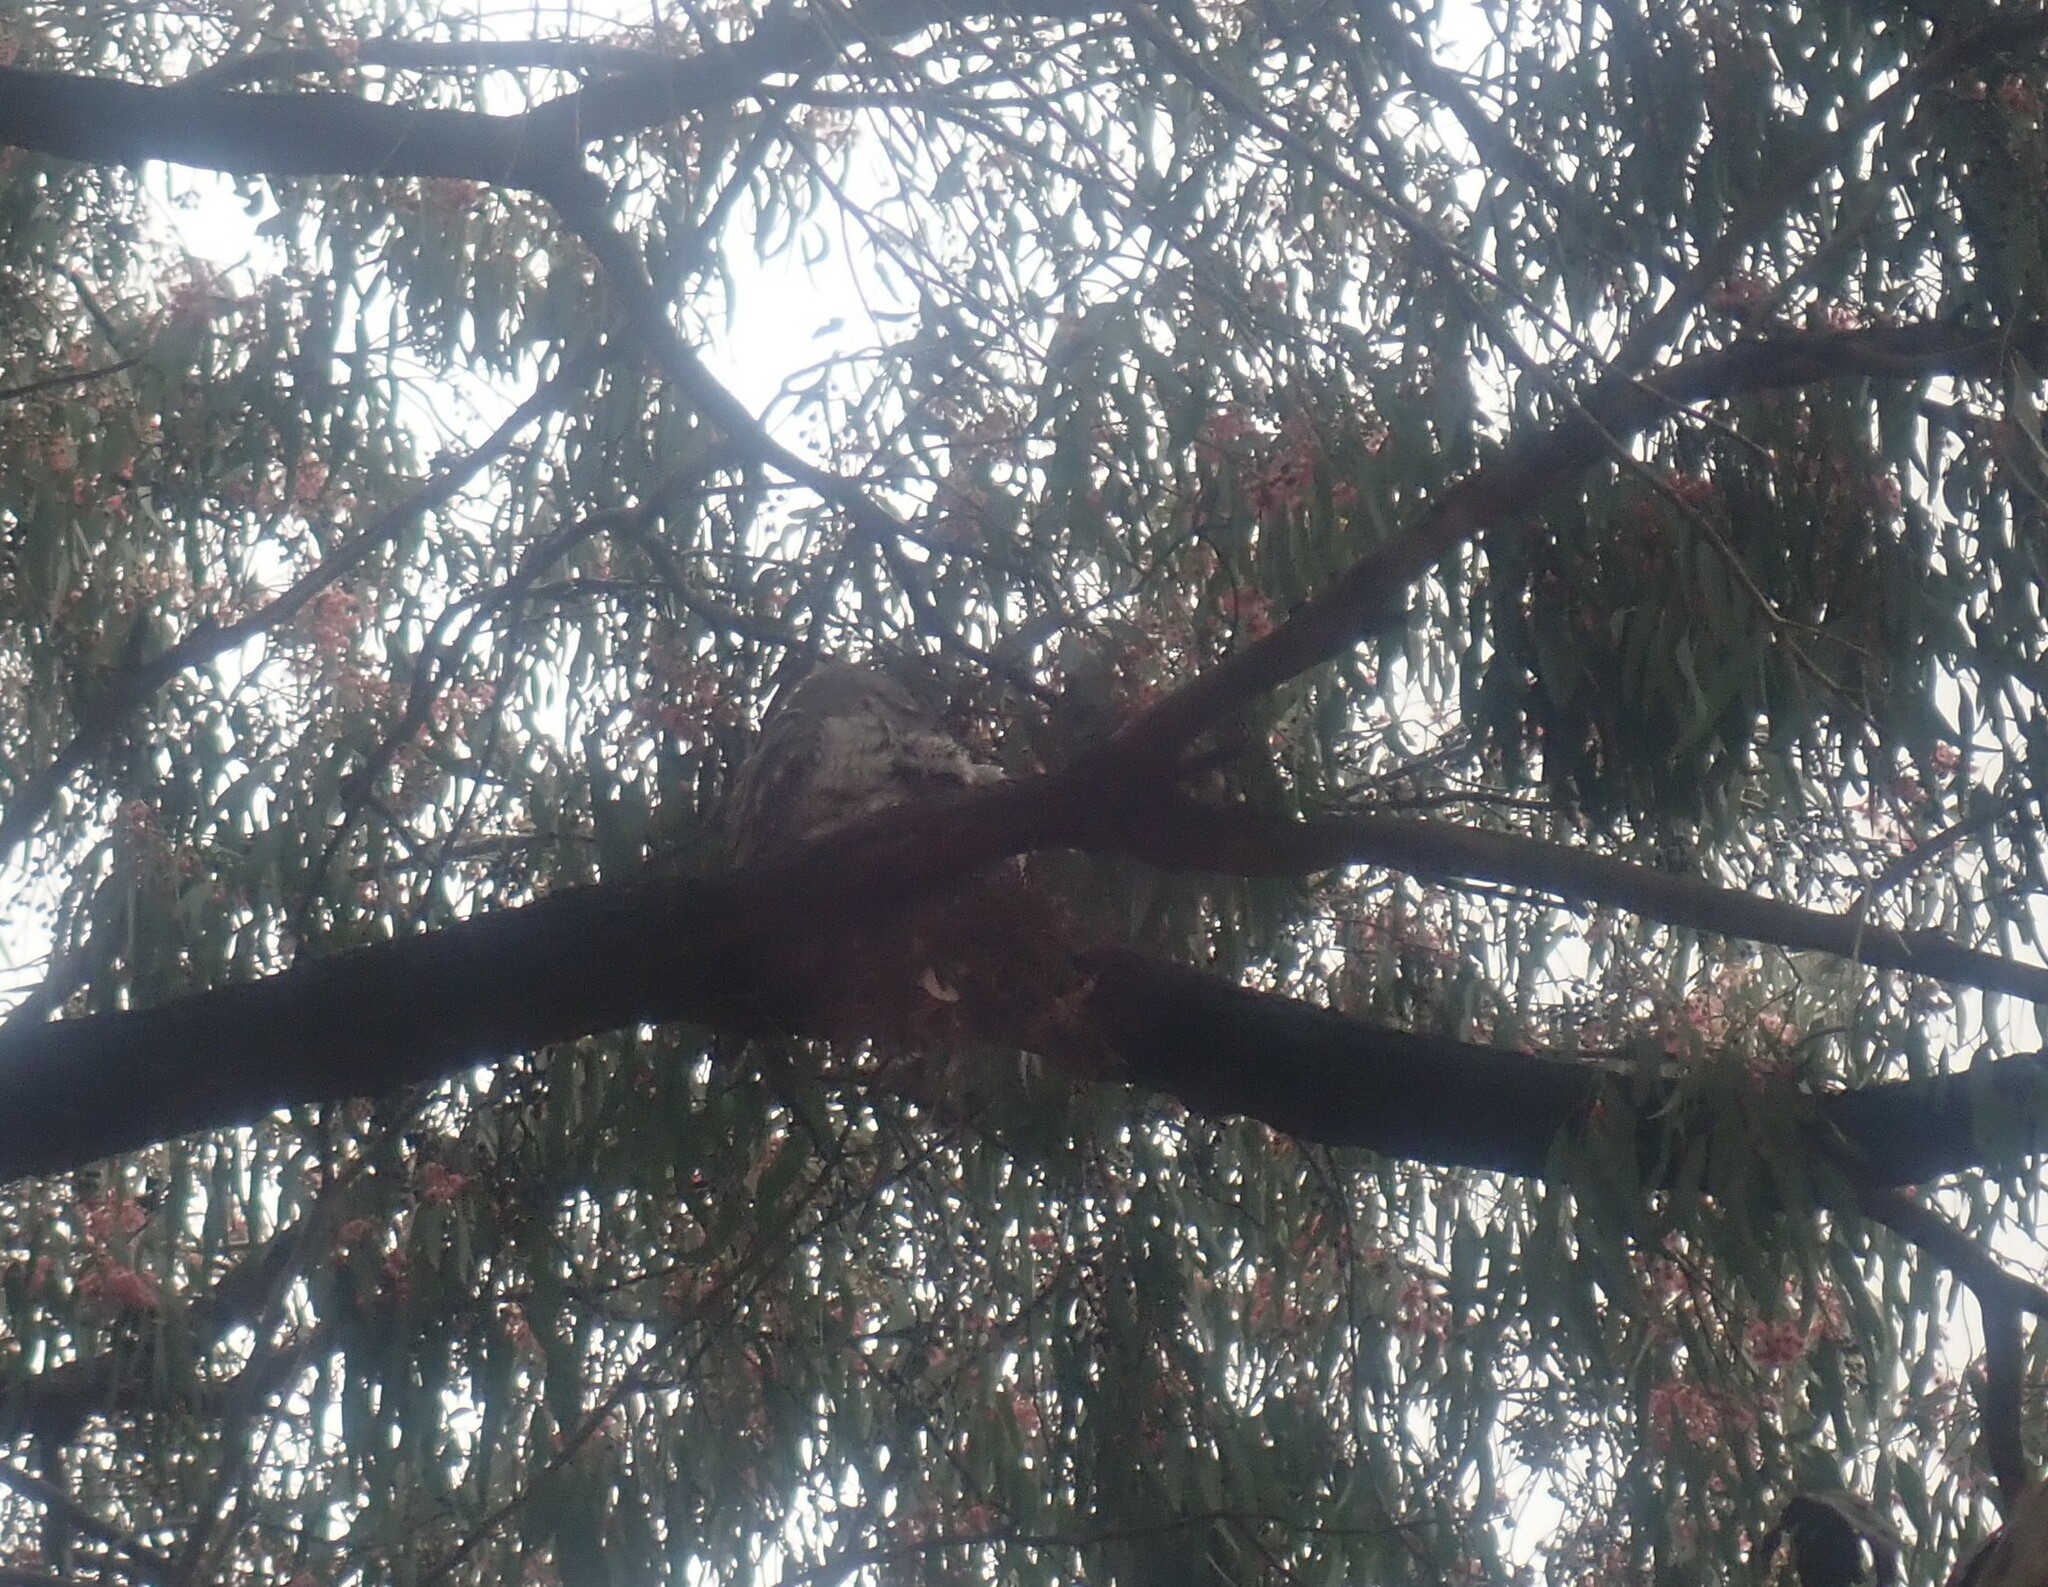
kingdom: Animalia
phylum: Chordata
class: Aves
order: Caprimulgiformes
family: Podargidae
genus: Podargus
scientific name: Podargus strigoides
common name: Tawny frogmouth
